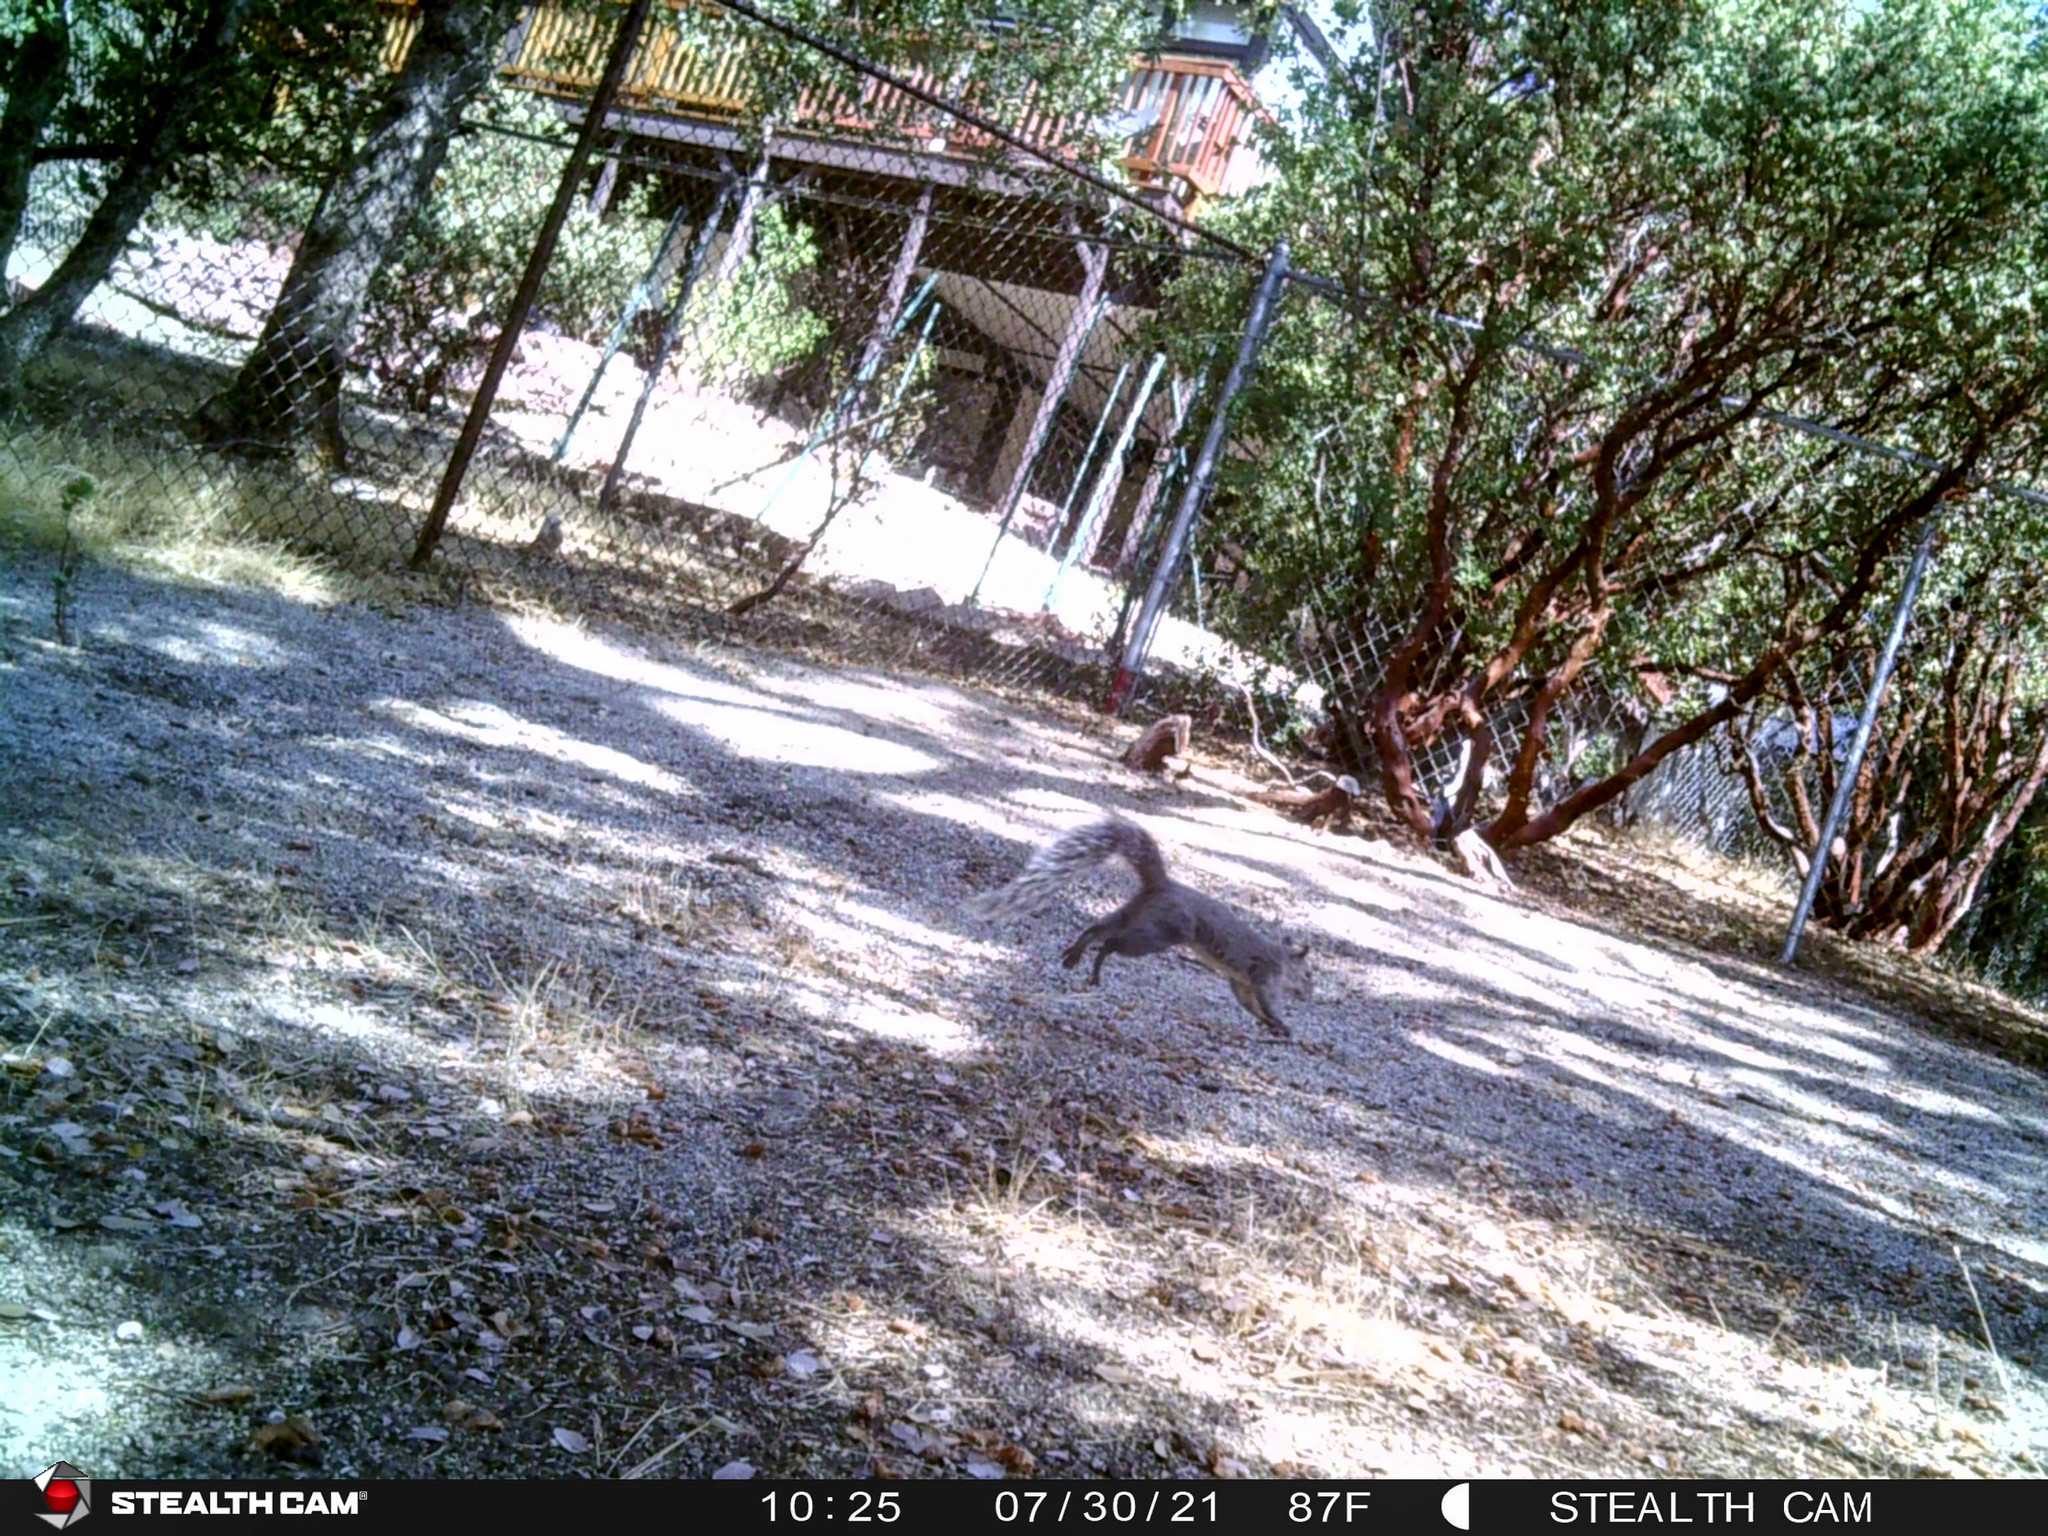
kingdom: Animalia
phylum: Chordata
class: Mammalia
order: Rodentia
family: Sciuridae
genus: Sciurus
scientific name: Sciurus griseus
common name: Western gray squirrel
